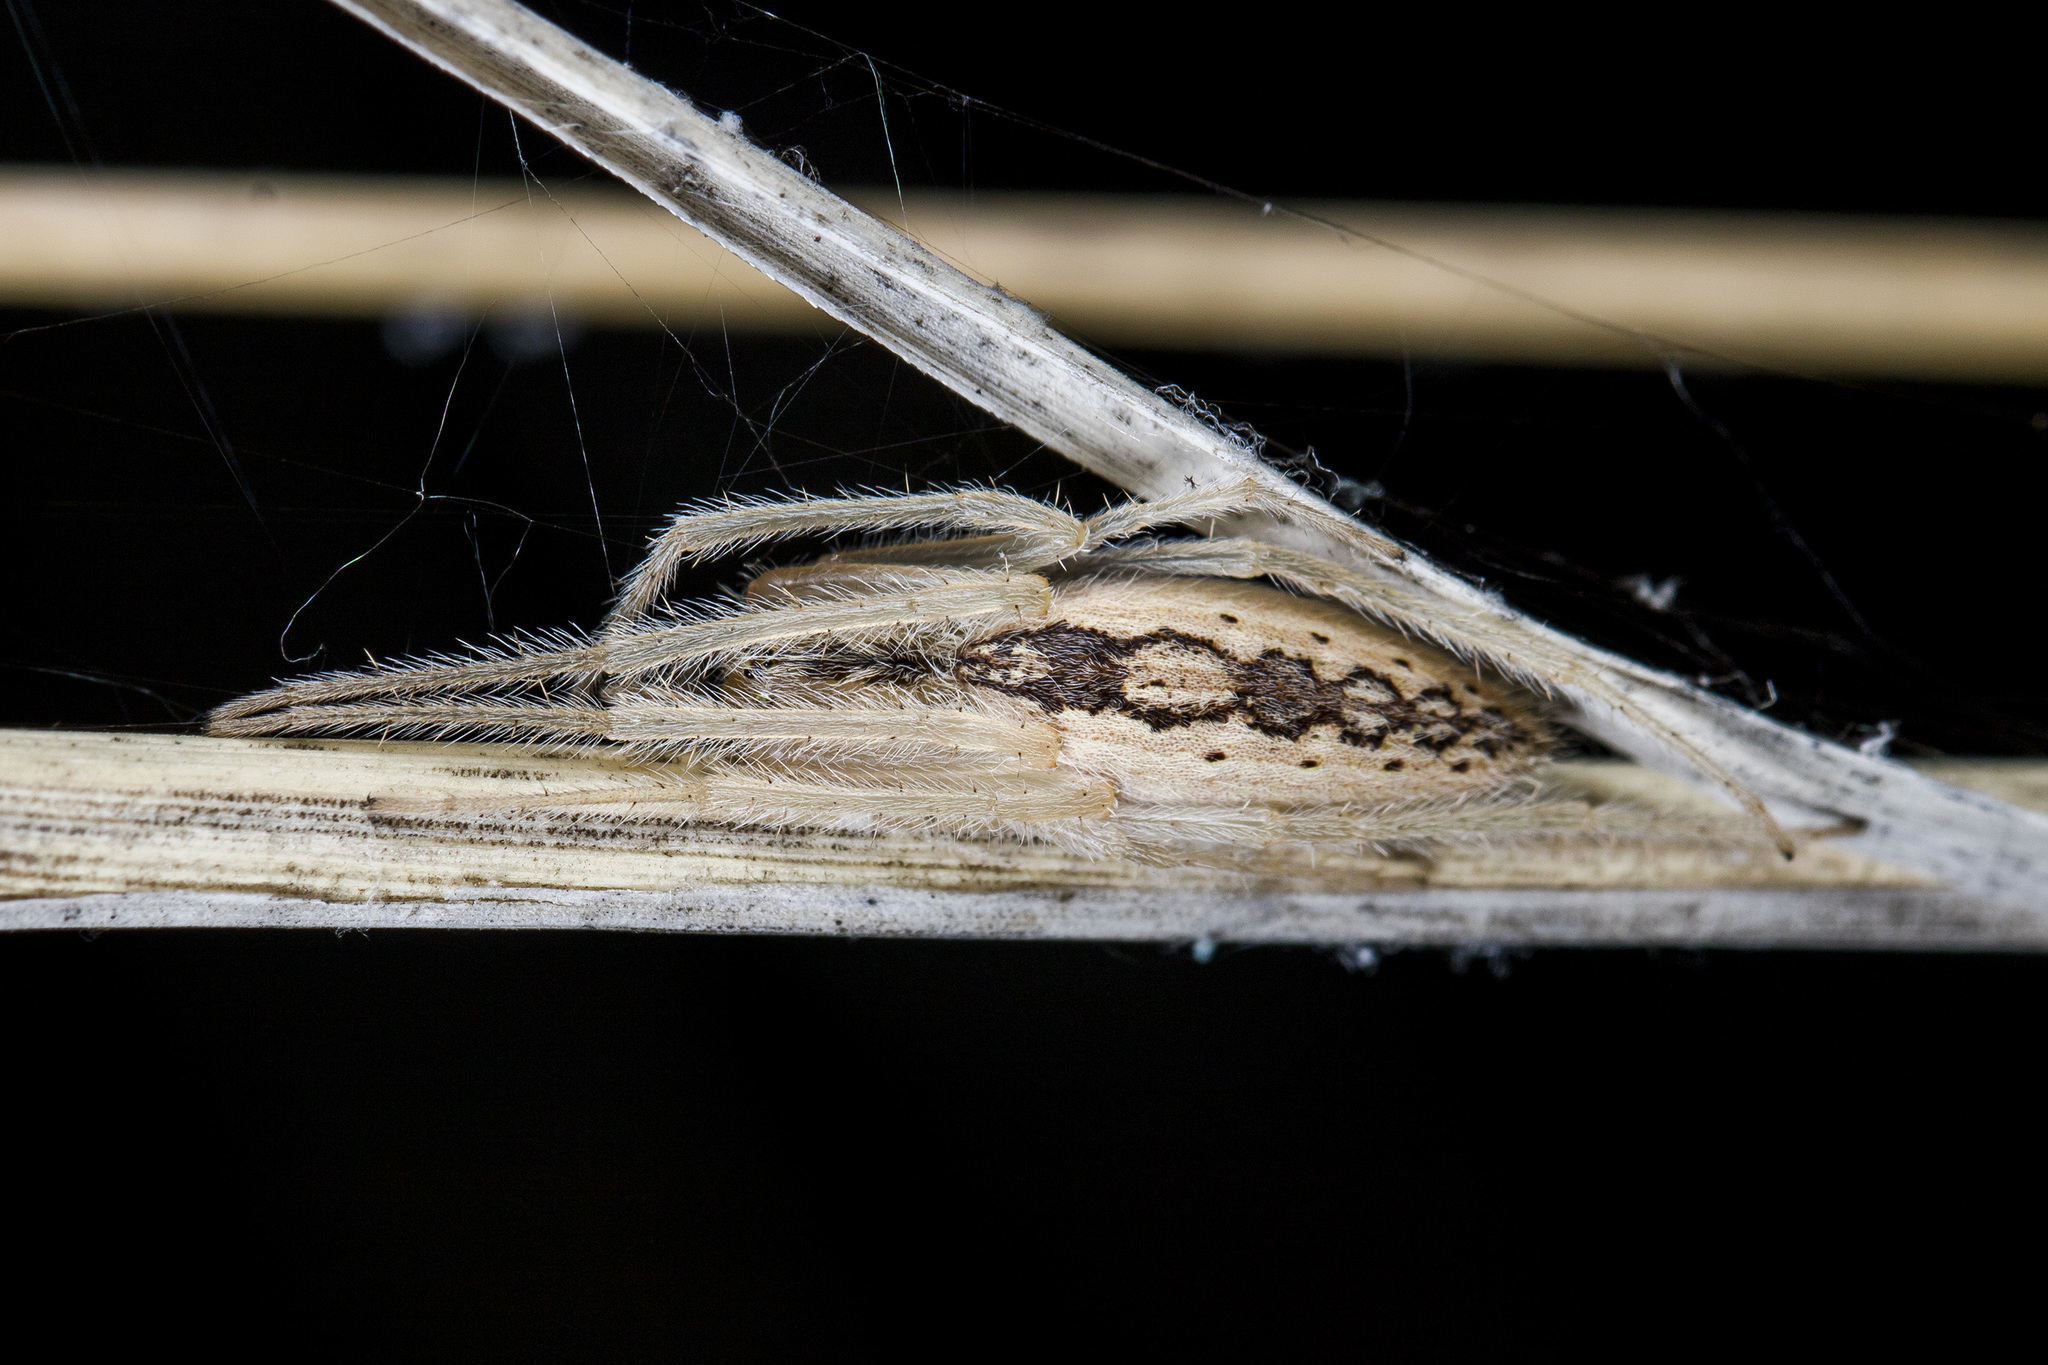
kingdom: Animalia
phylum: Arthropoda
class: Arachnida
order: Araneae
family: Araneidae
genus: Larinia
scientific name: Larinia phthisica
